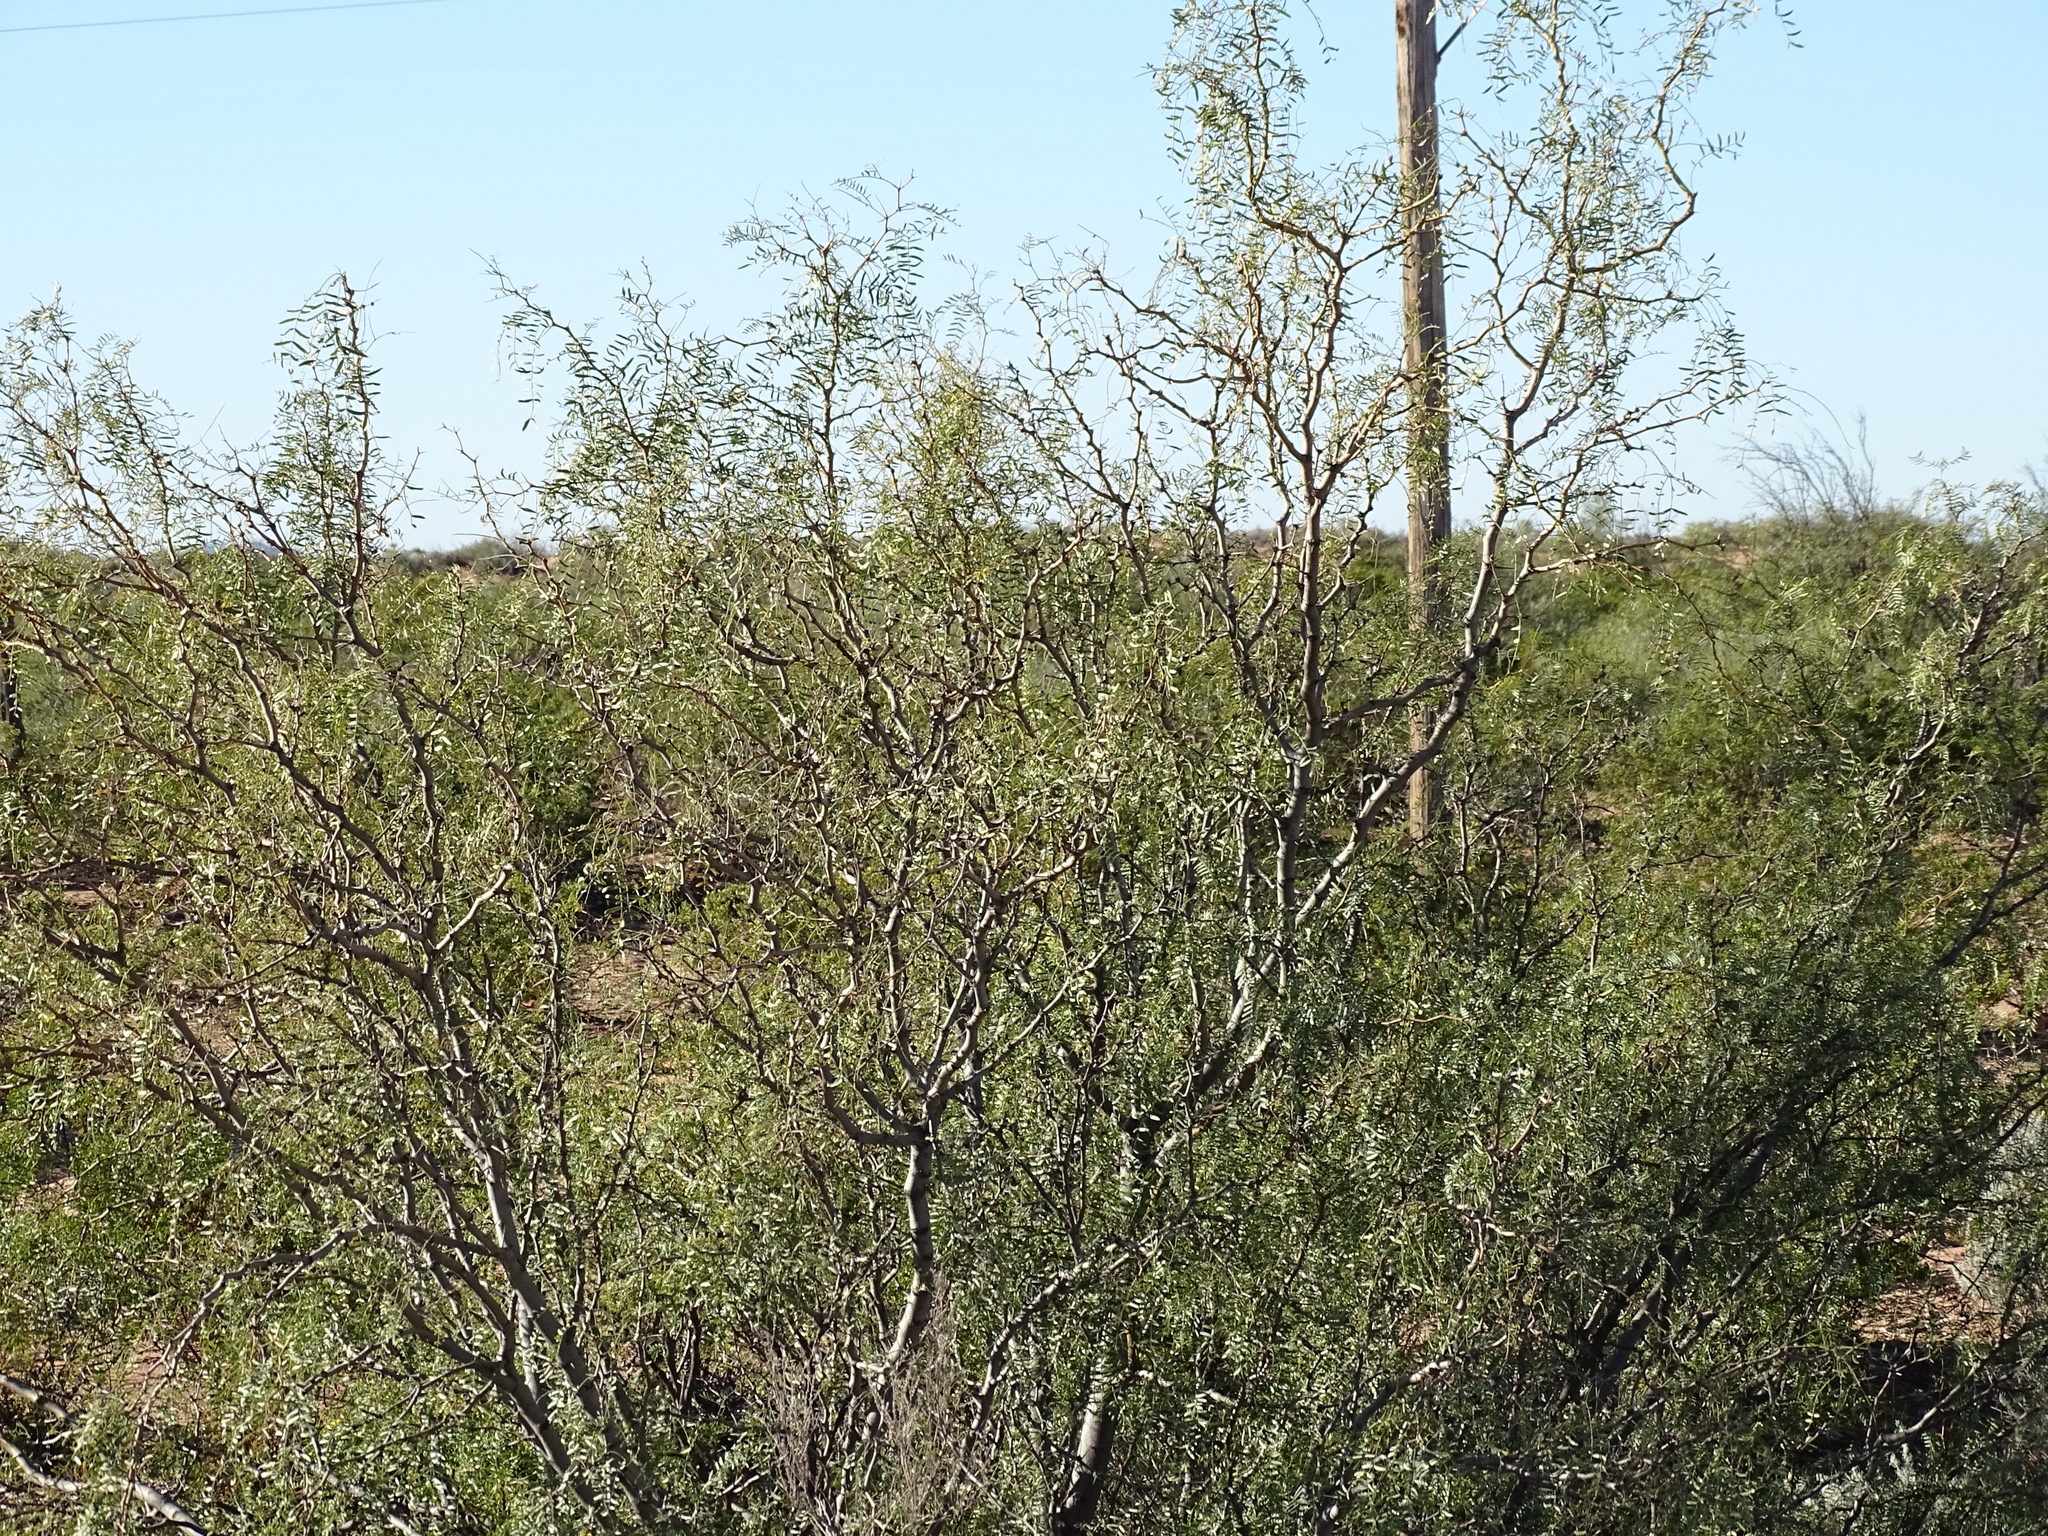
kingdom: Plantae
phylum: Tracheophyta
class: Magnoliopsida
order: Fabales
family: Fabaceae
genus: Prosopis
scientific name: Prosopis glandulosa
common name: Honey mesquite
